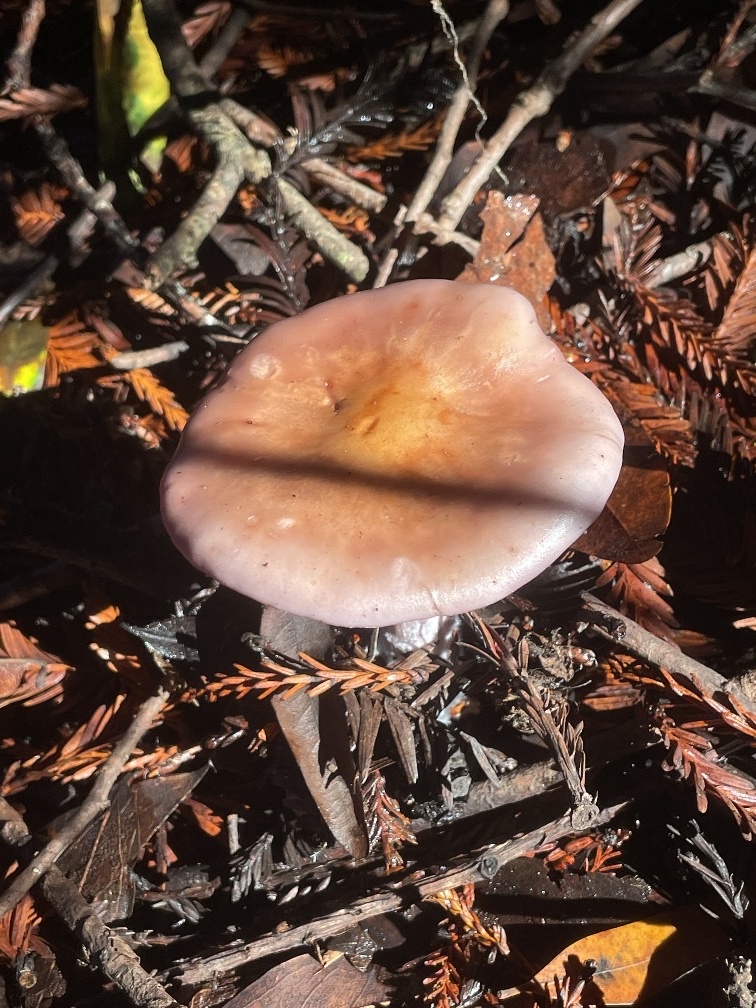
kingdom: Fungi
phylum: Basidiomycota
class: Agaricomycetes
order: Agaricales
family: Tricholomataceae
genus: Collybia
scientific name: Collybia
